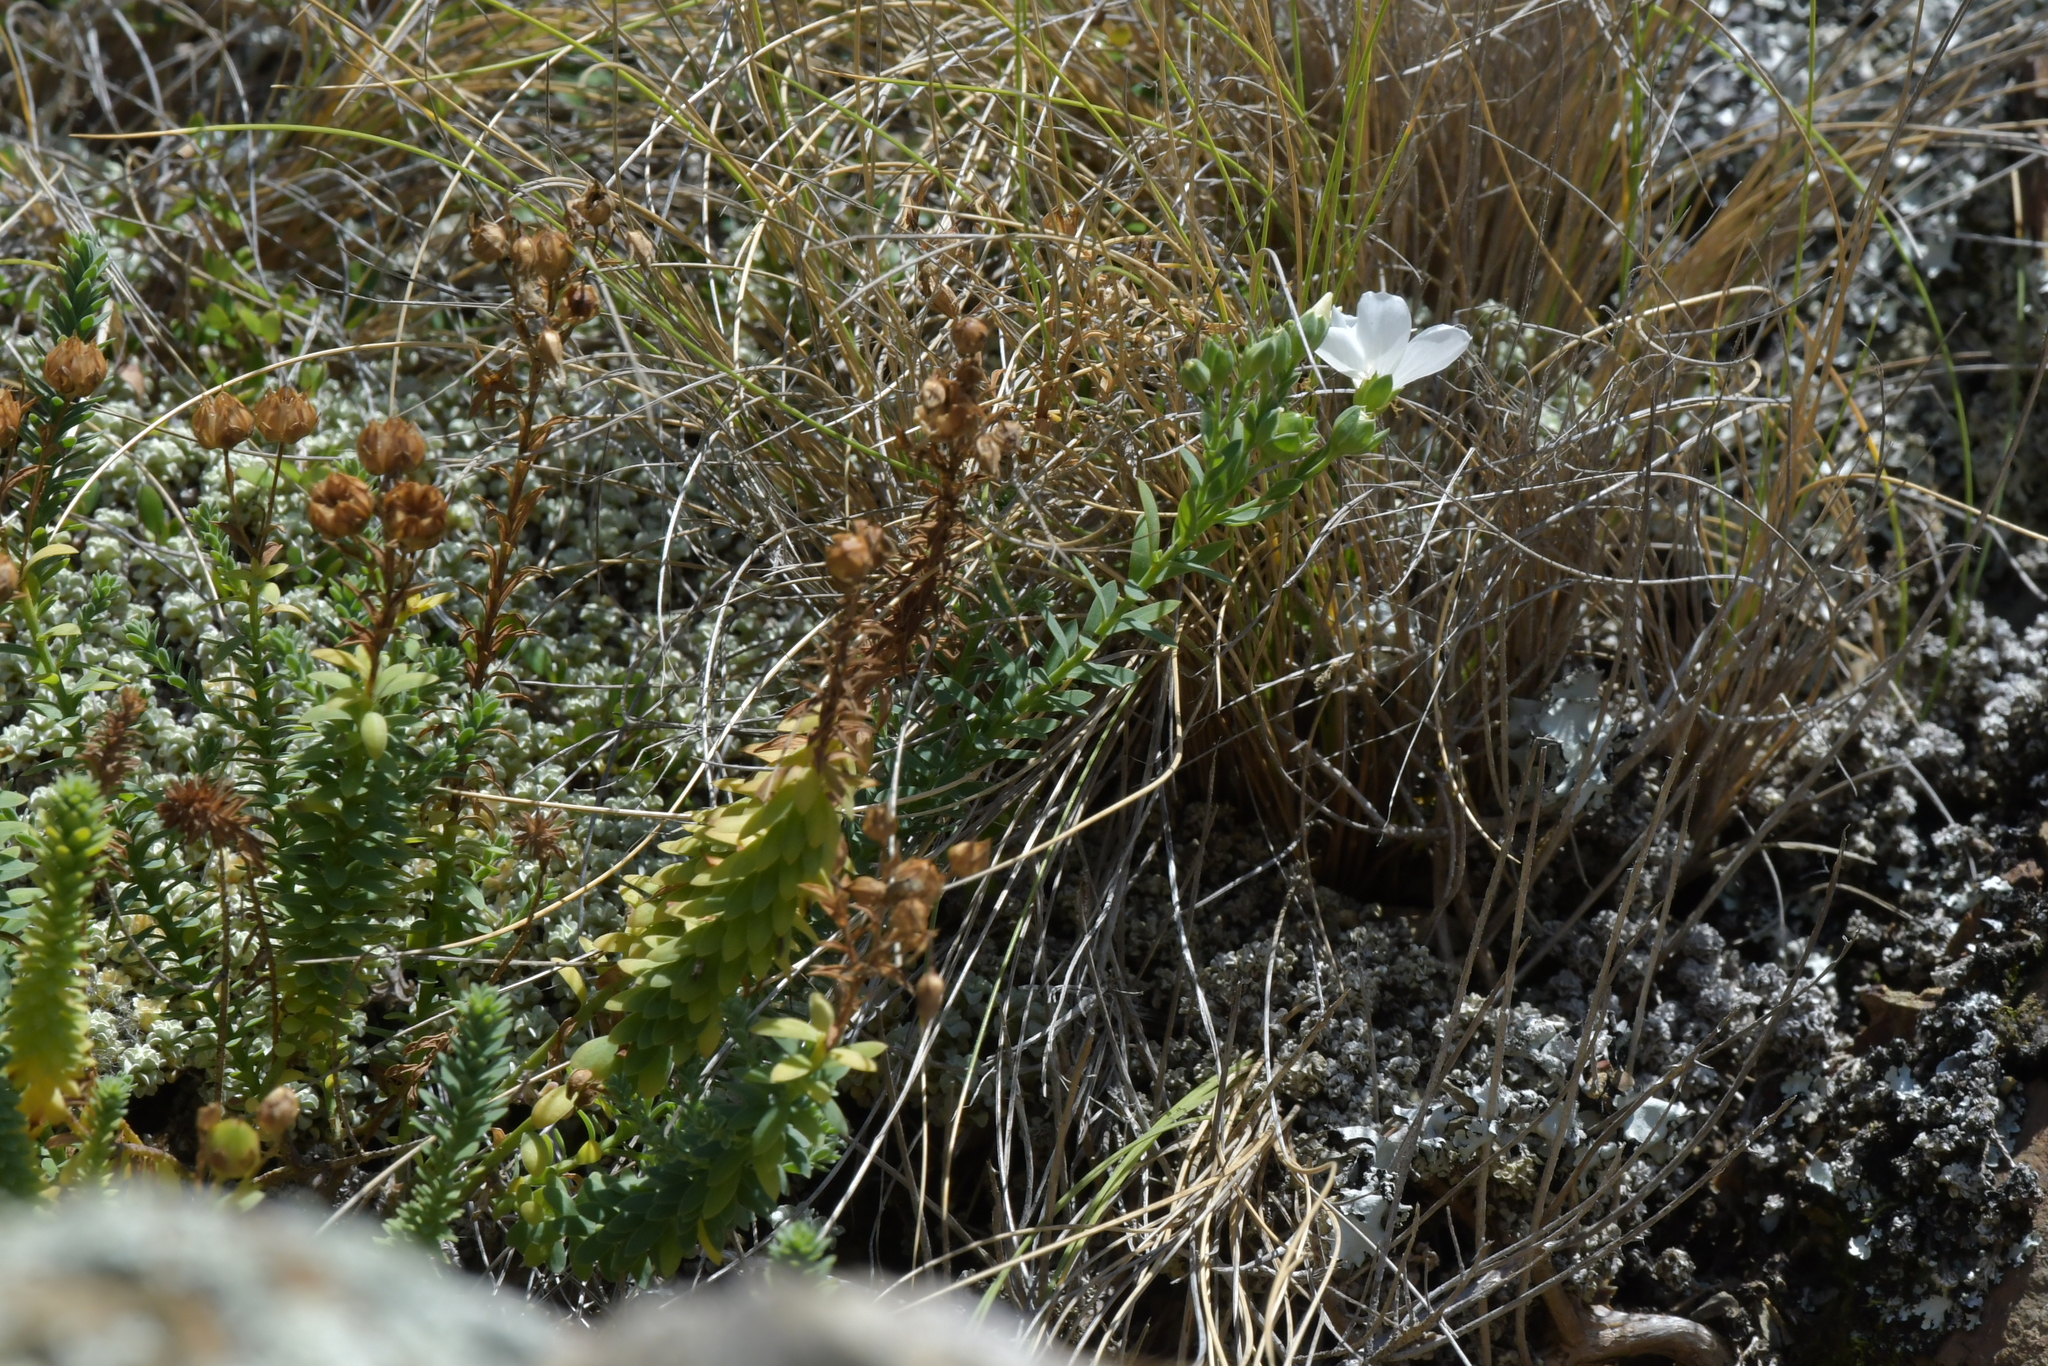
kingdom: Plantae
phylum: Tracheophyta
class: Magnoliopsida
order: Malpighiales
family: Linaceae
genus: Linum
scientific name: Linum monogynum
